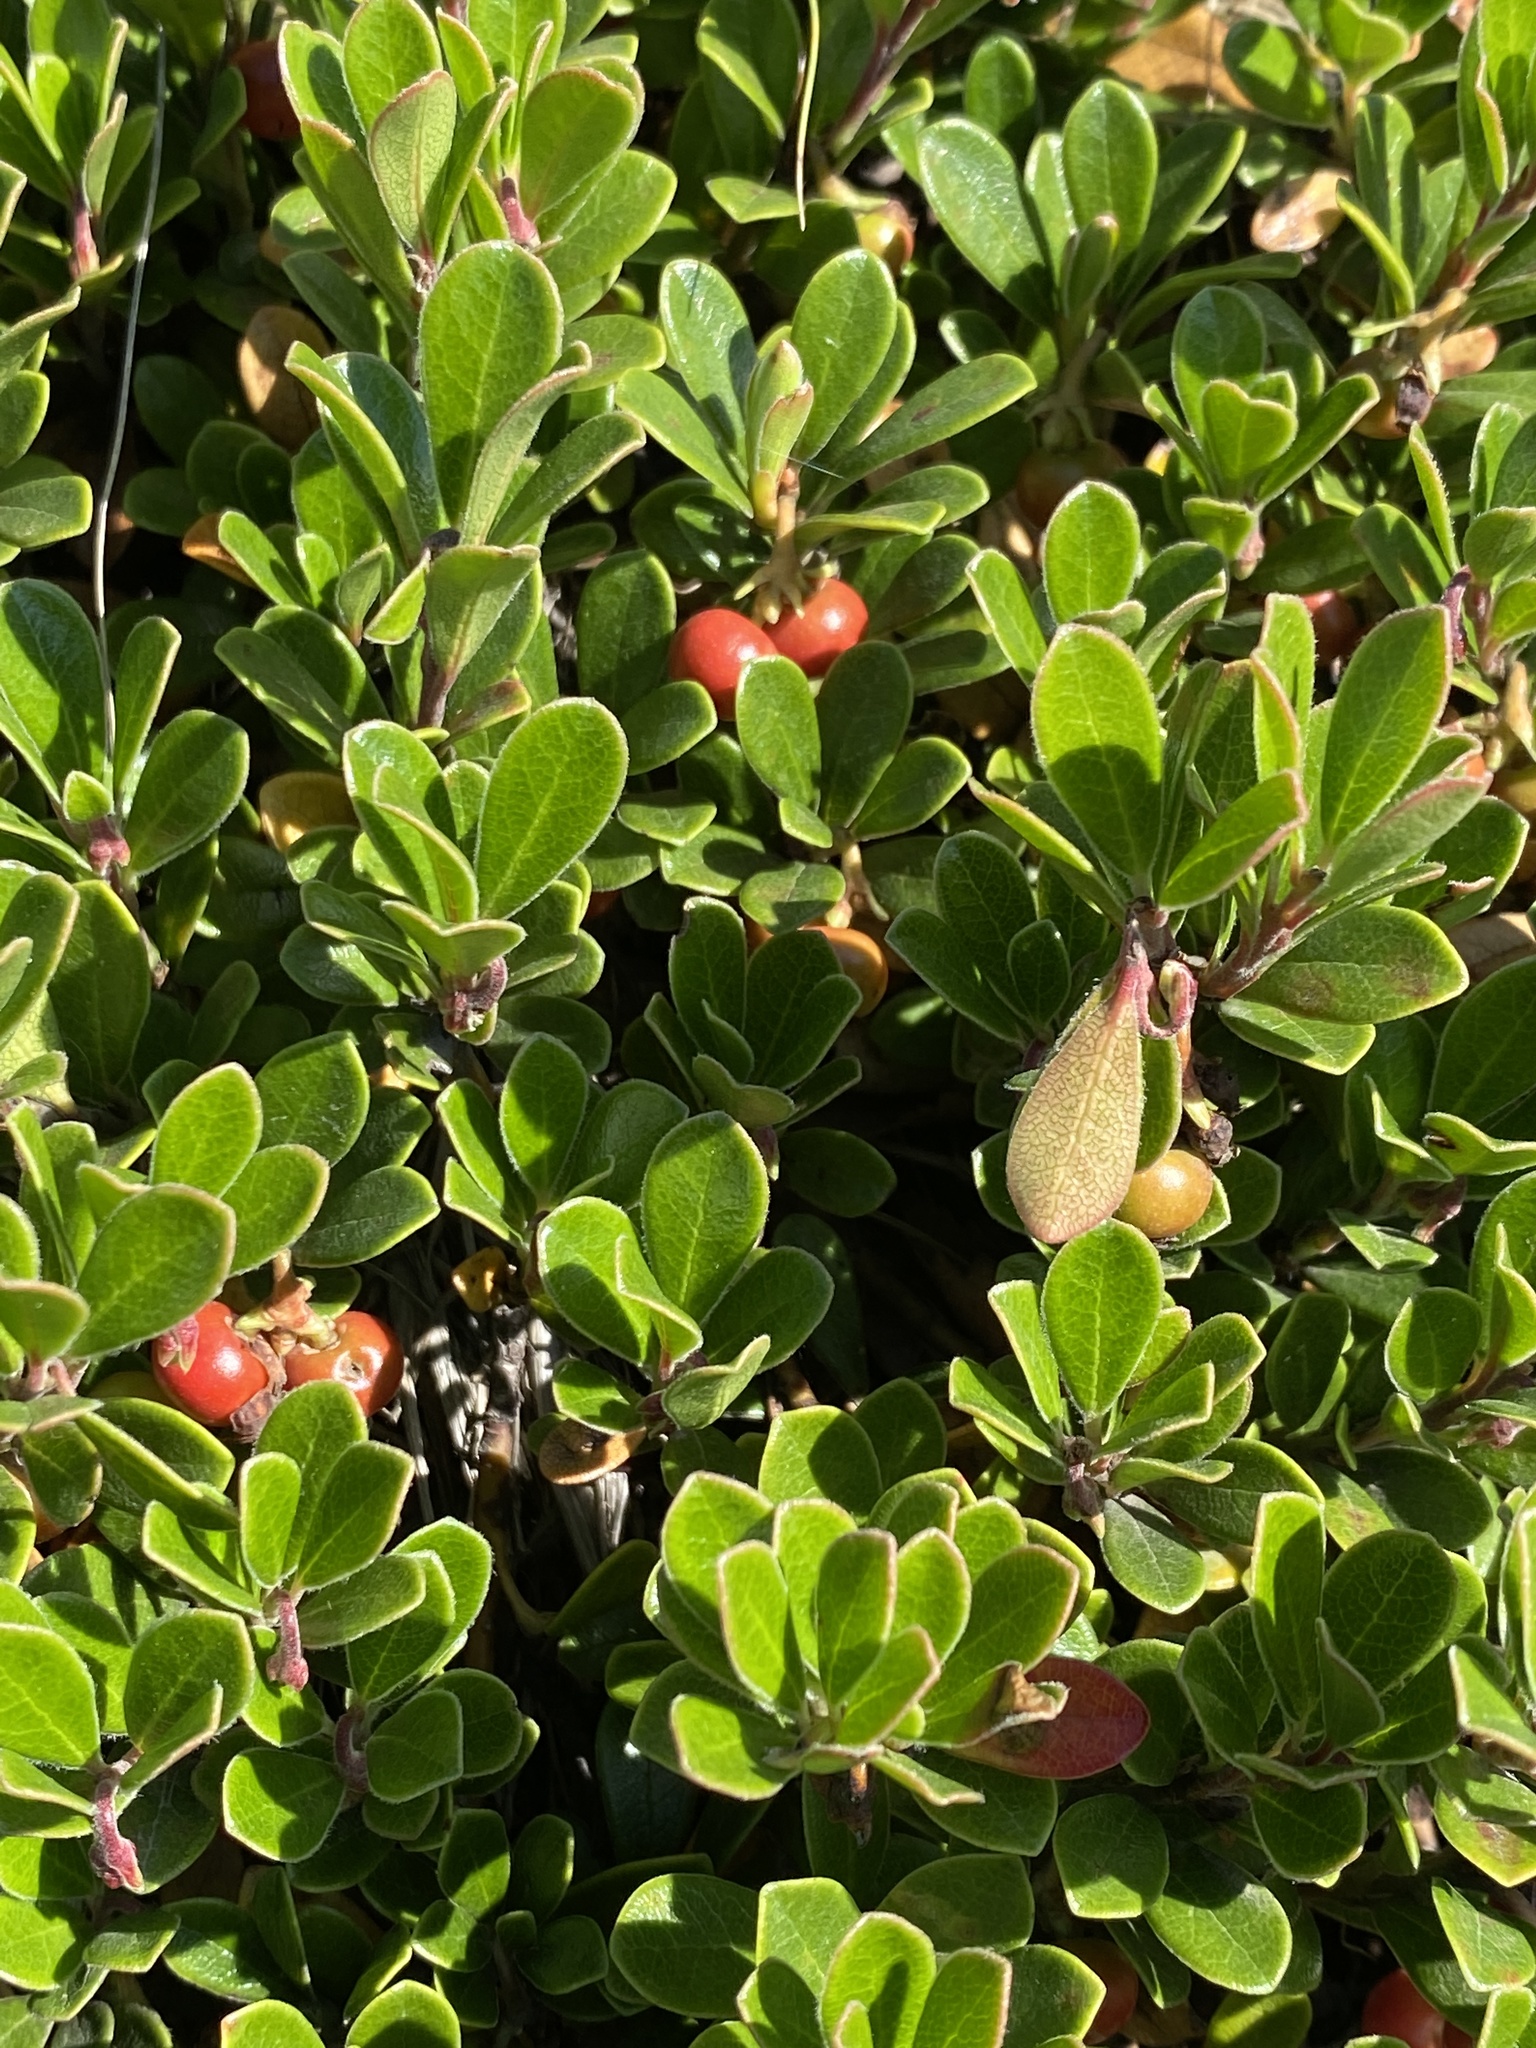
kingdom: Plantae
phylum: Tracheophyta
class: Magnoliopsida
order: Ericales
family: Ericaceae
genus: Arctostaphylos
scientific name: Arctostaphylos uva-ursi
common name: Bearberry
